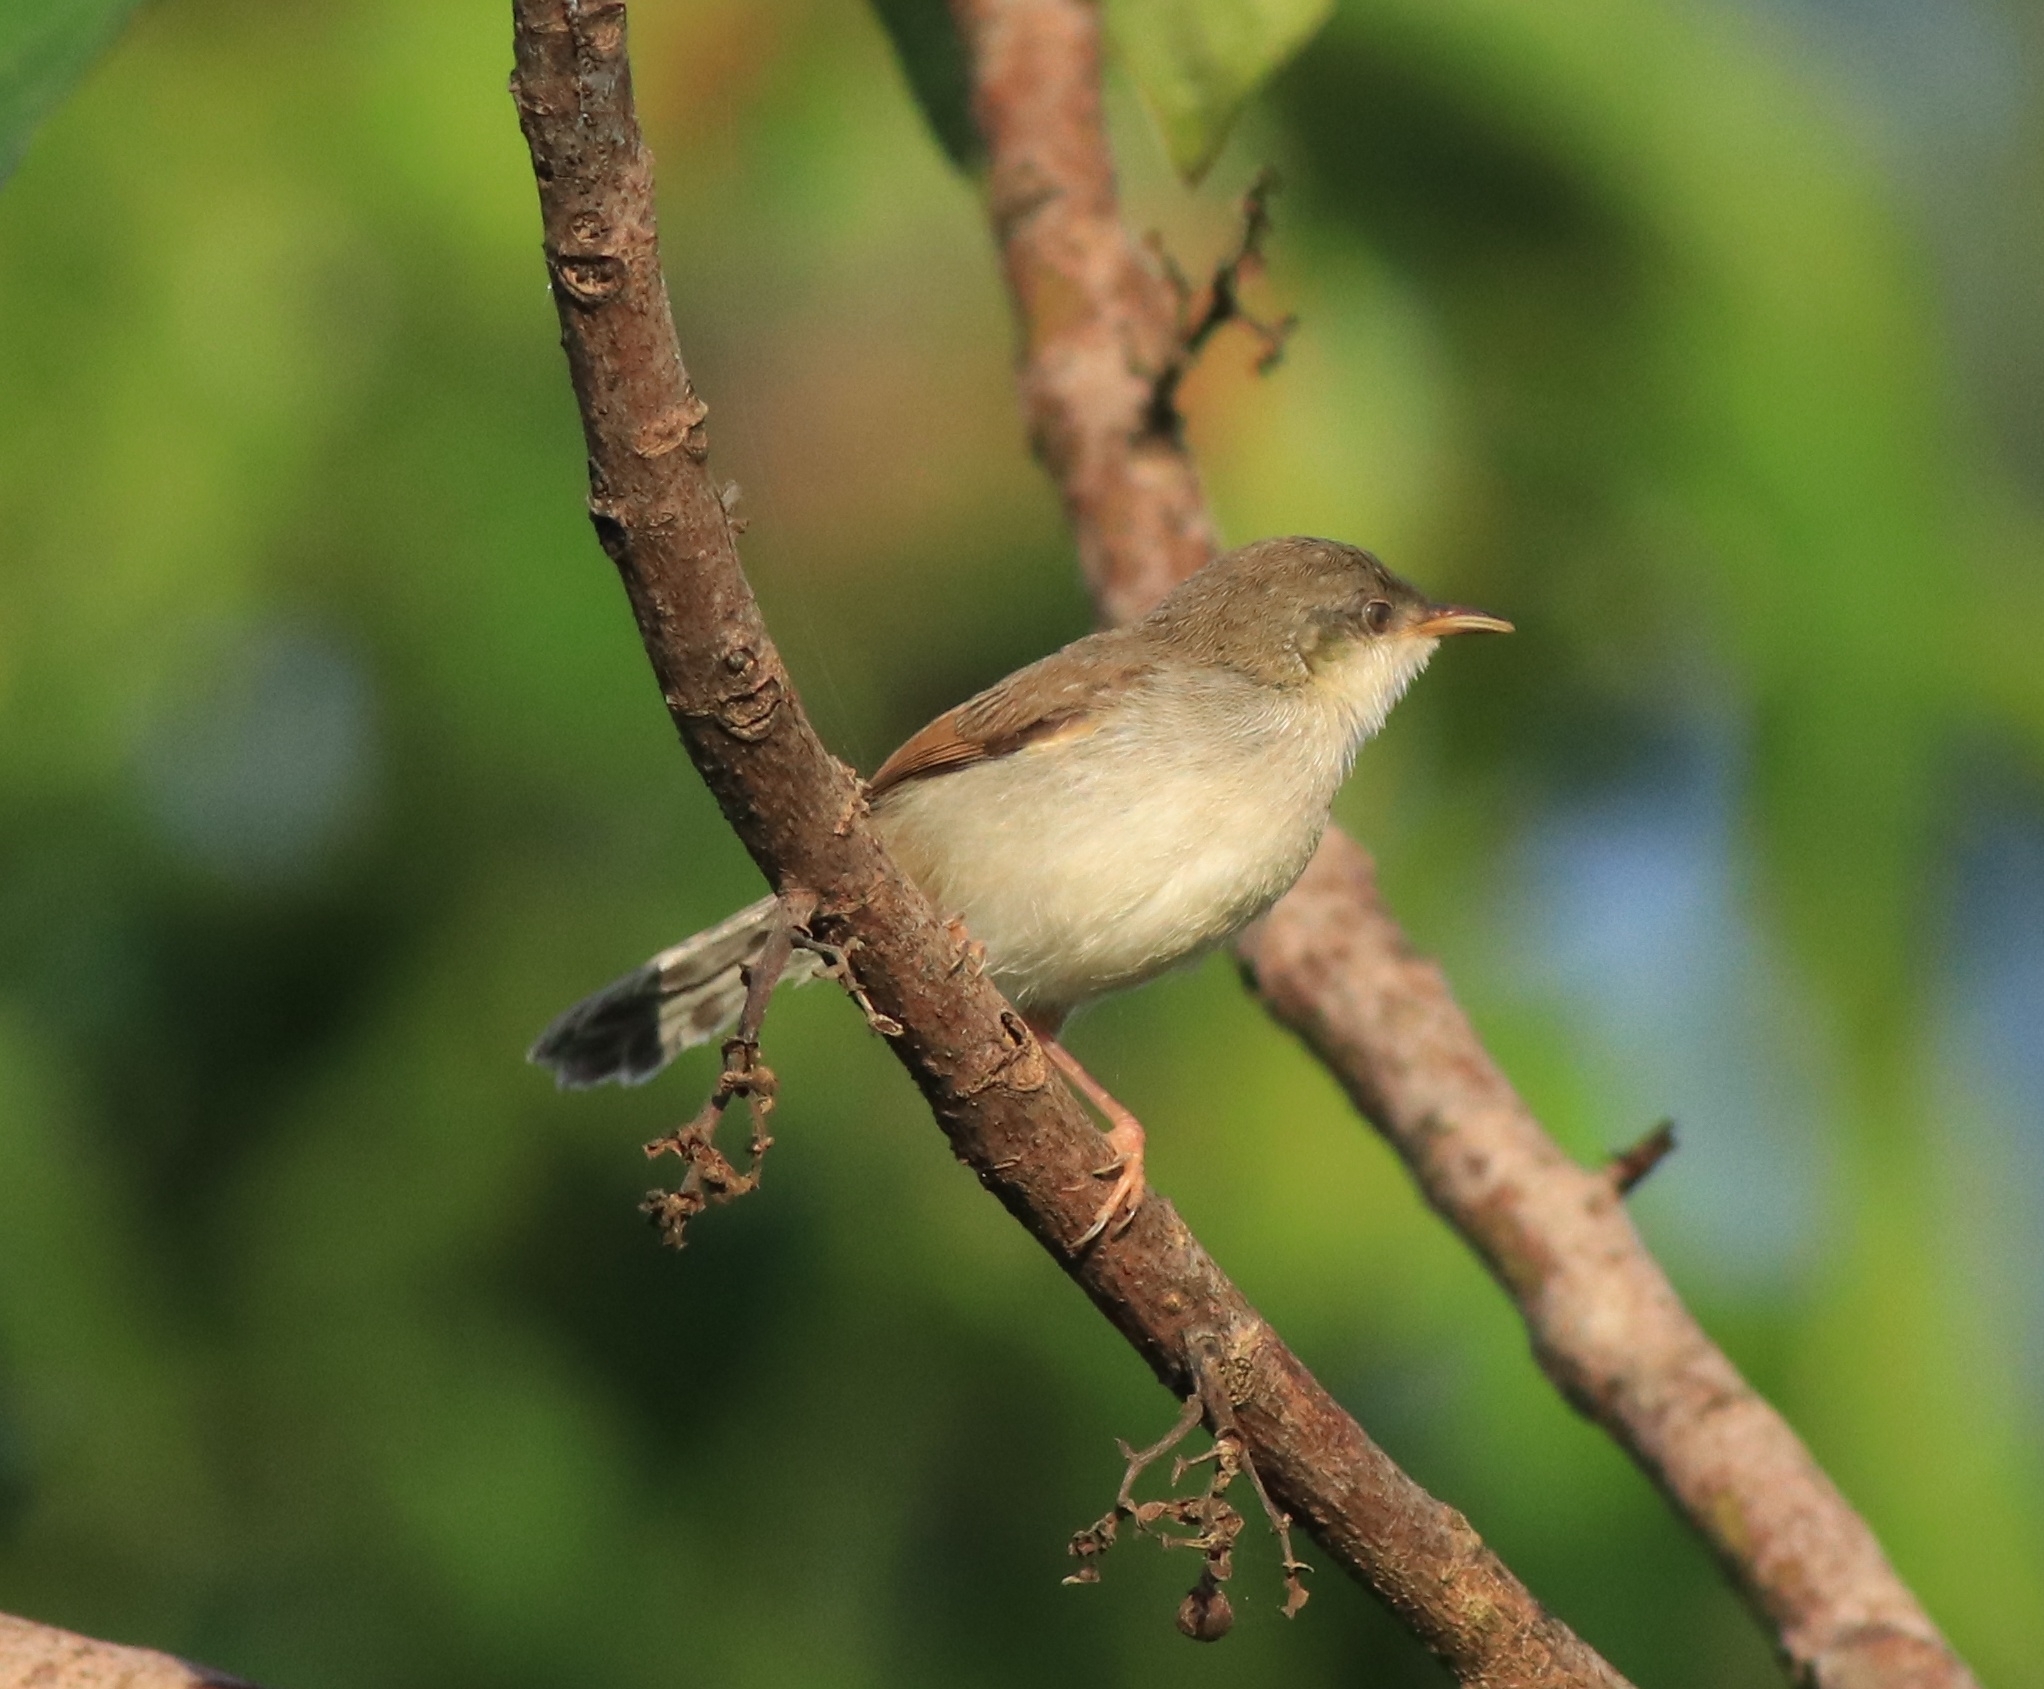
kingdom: Animalia
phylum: Chordata
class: Aves
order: Passeriformes
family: Cisticolidae
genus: Prinia
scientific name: Prinia hodgsonii
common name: Grey-breasted prinia
